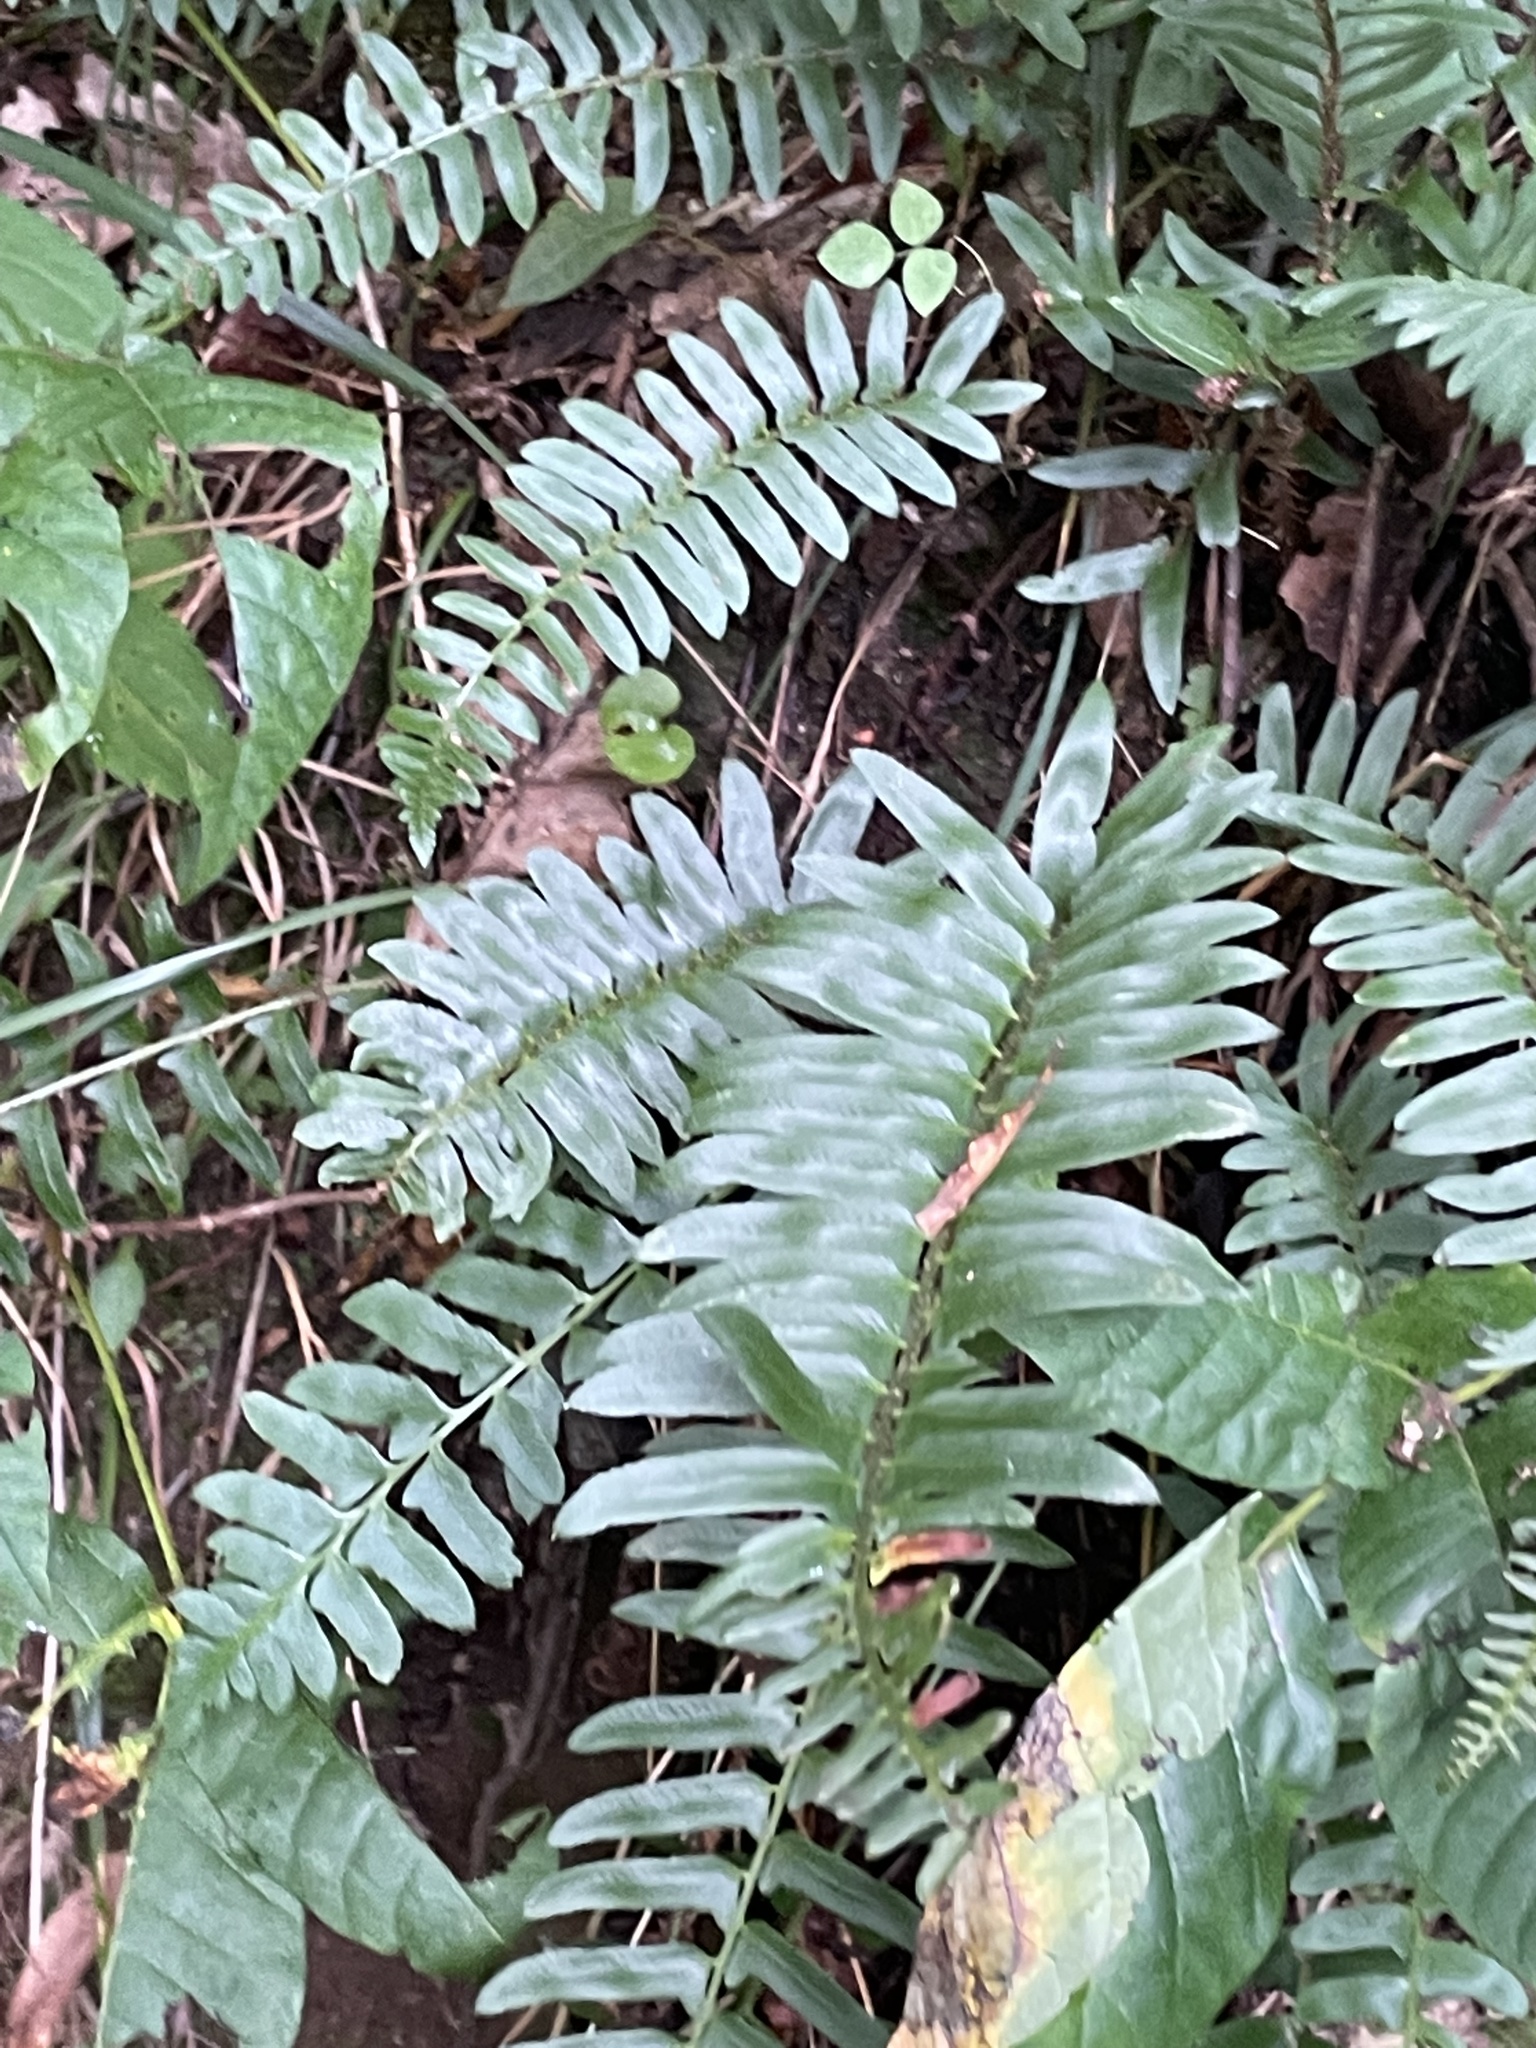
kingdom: Plantae
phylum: Tracheophyta
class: Polypodiopsida
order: Polypodiales
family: Dryopteridaceae
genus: Polystichum
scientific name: Polystichum acrostichoides
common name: Christmas fern
